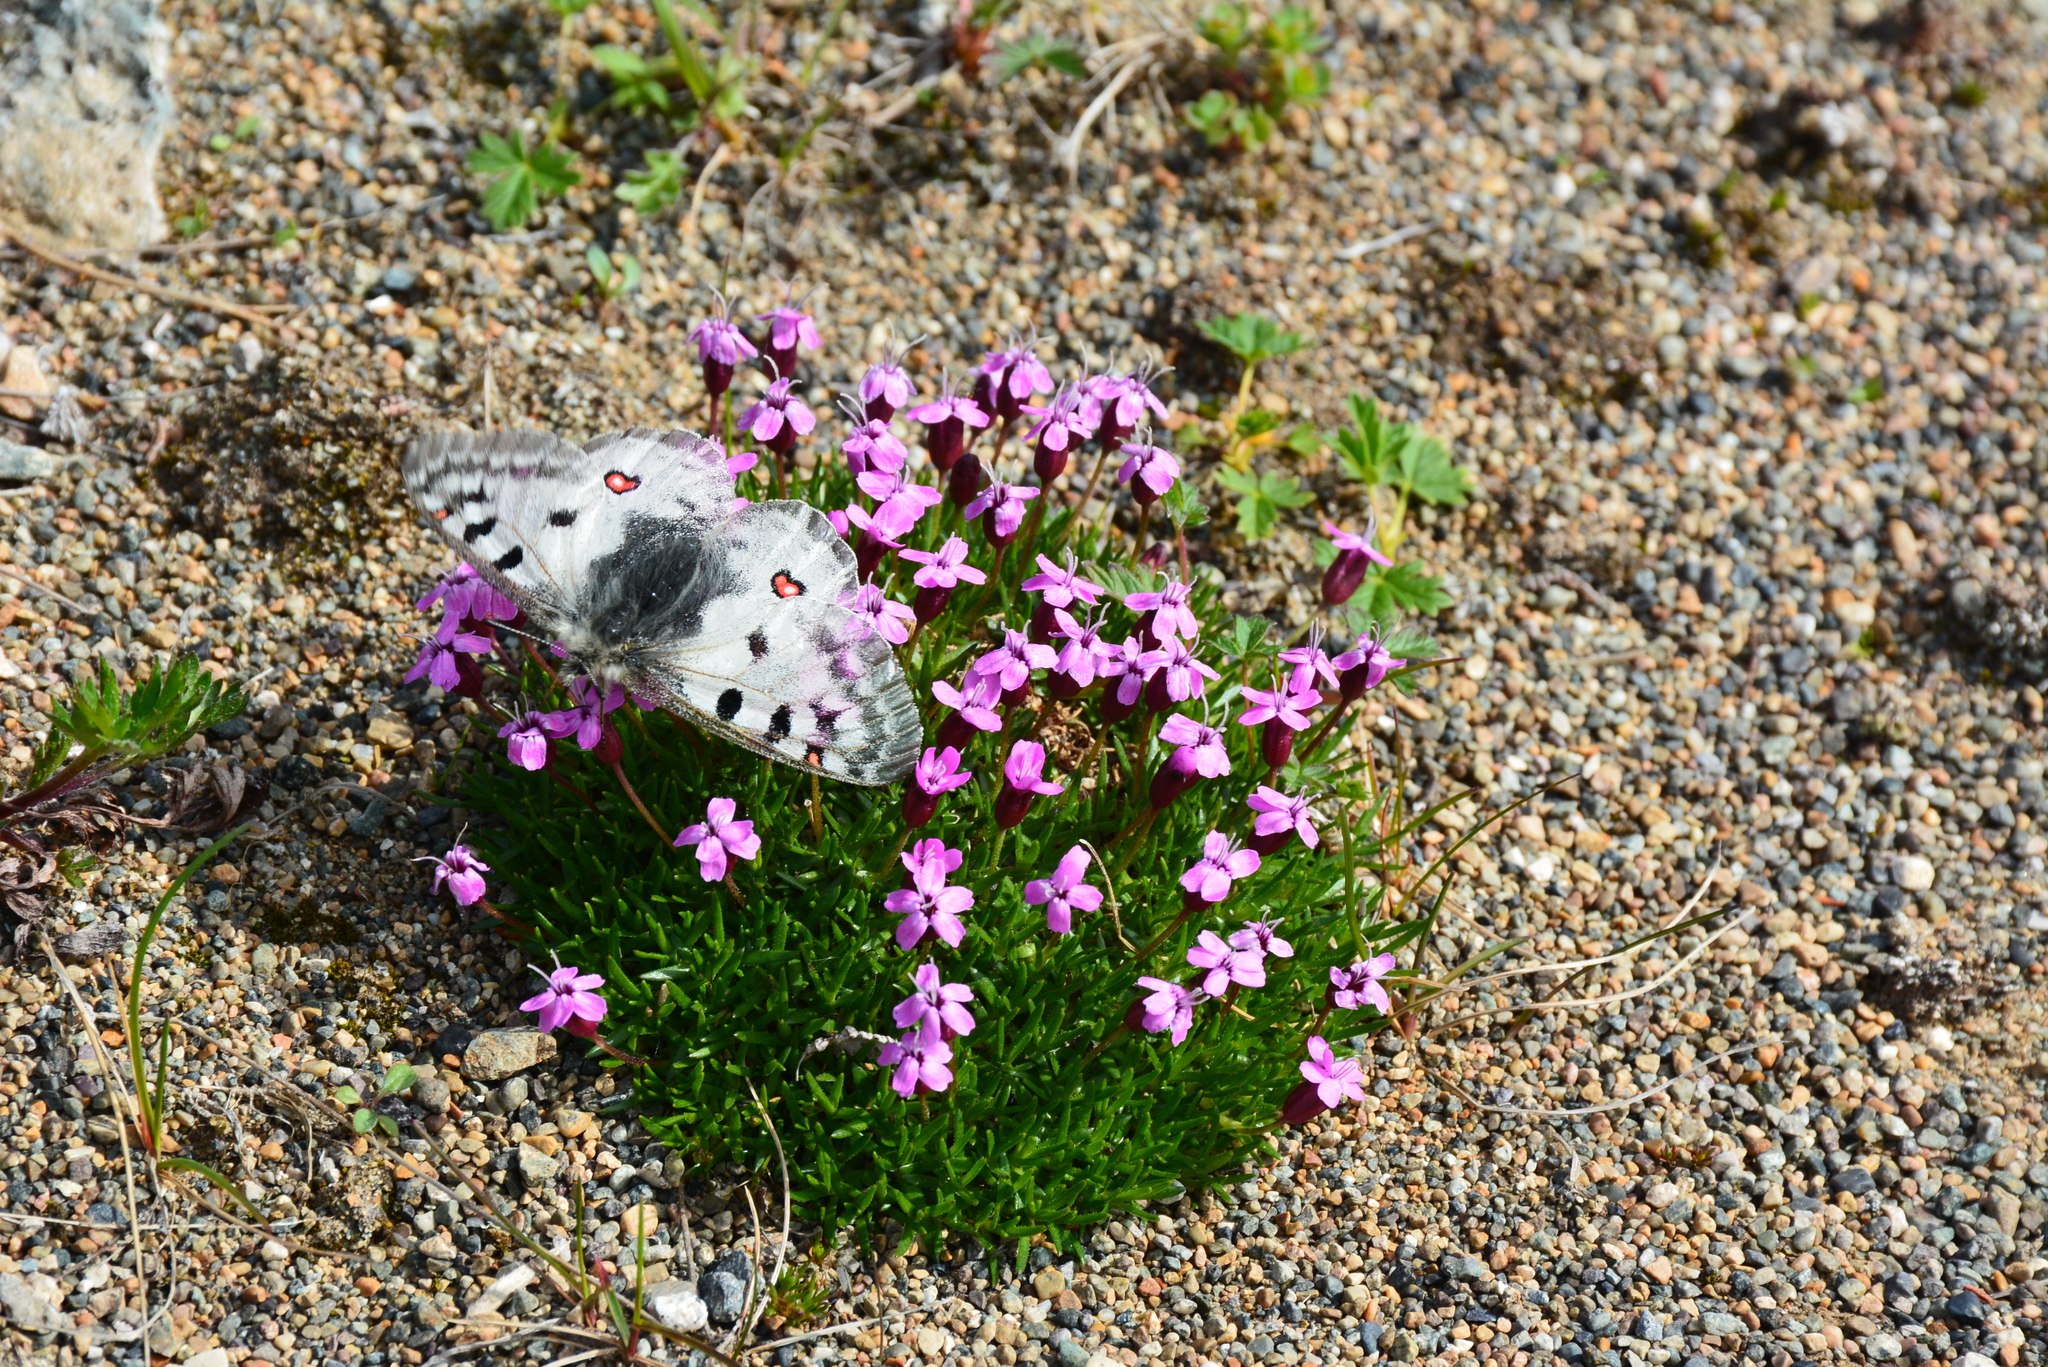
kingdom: Animalia
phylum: Arthropoda
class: Insecta
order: Lepidoptera
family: Papilionidae
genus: Parnassius
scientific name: Parnassius phoebus
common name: Small apollo
